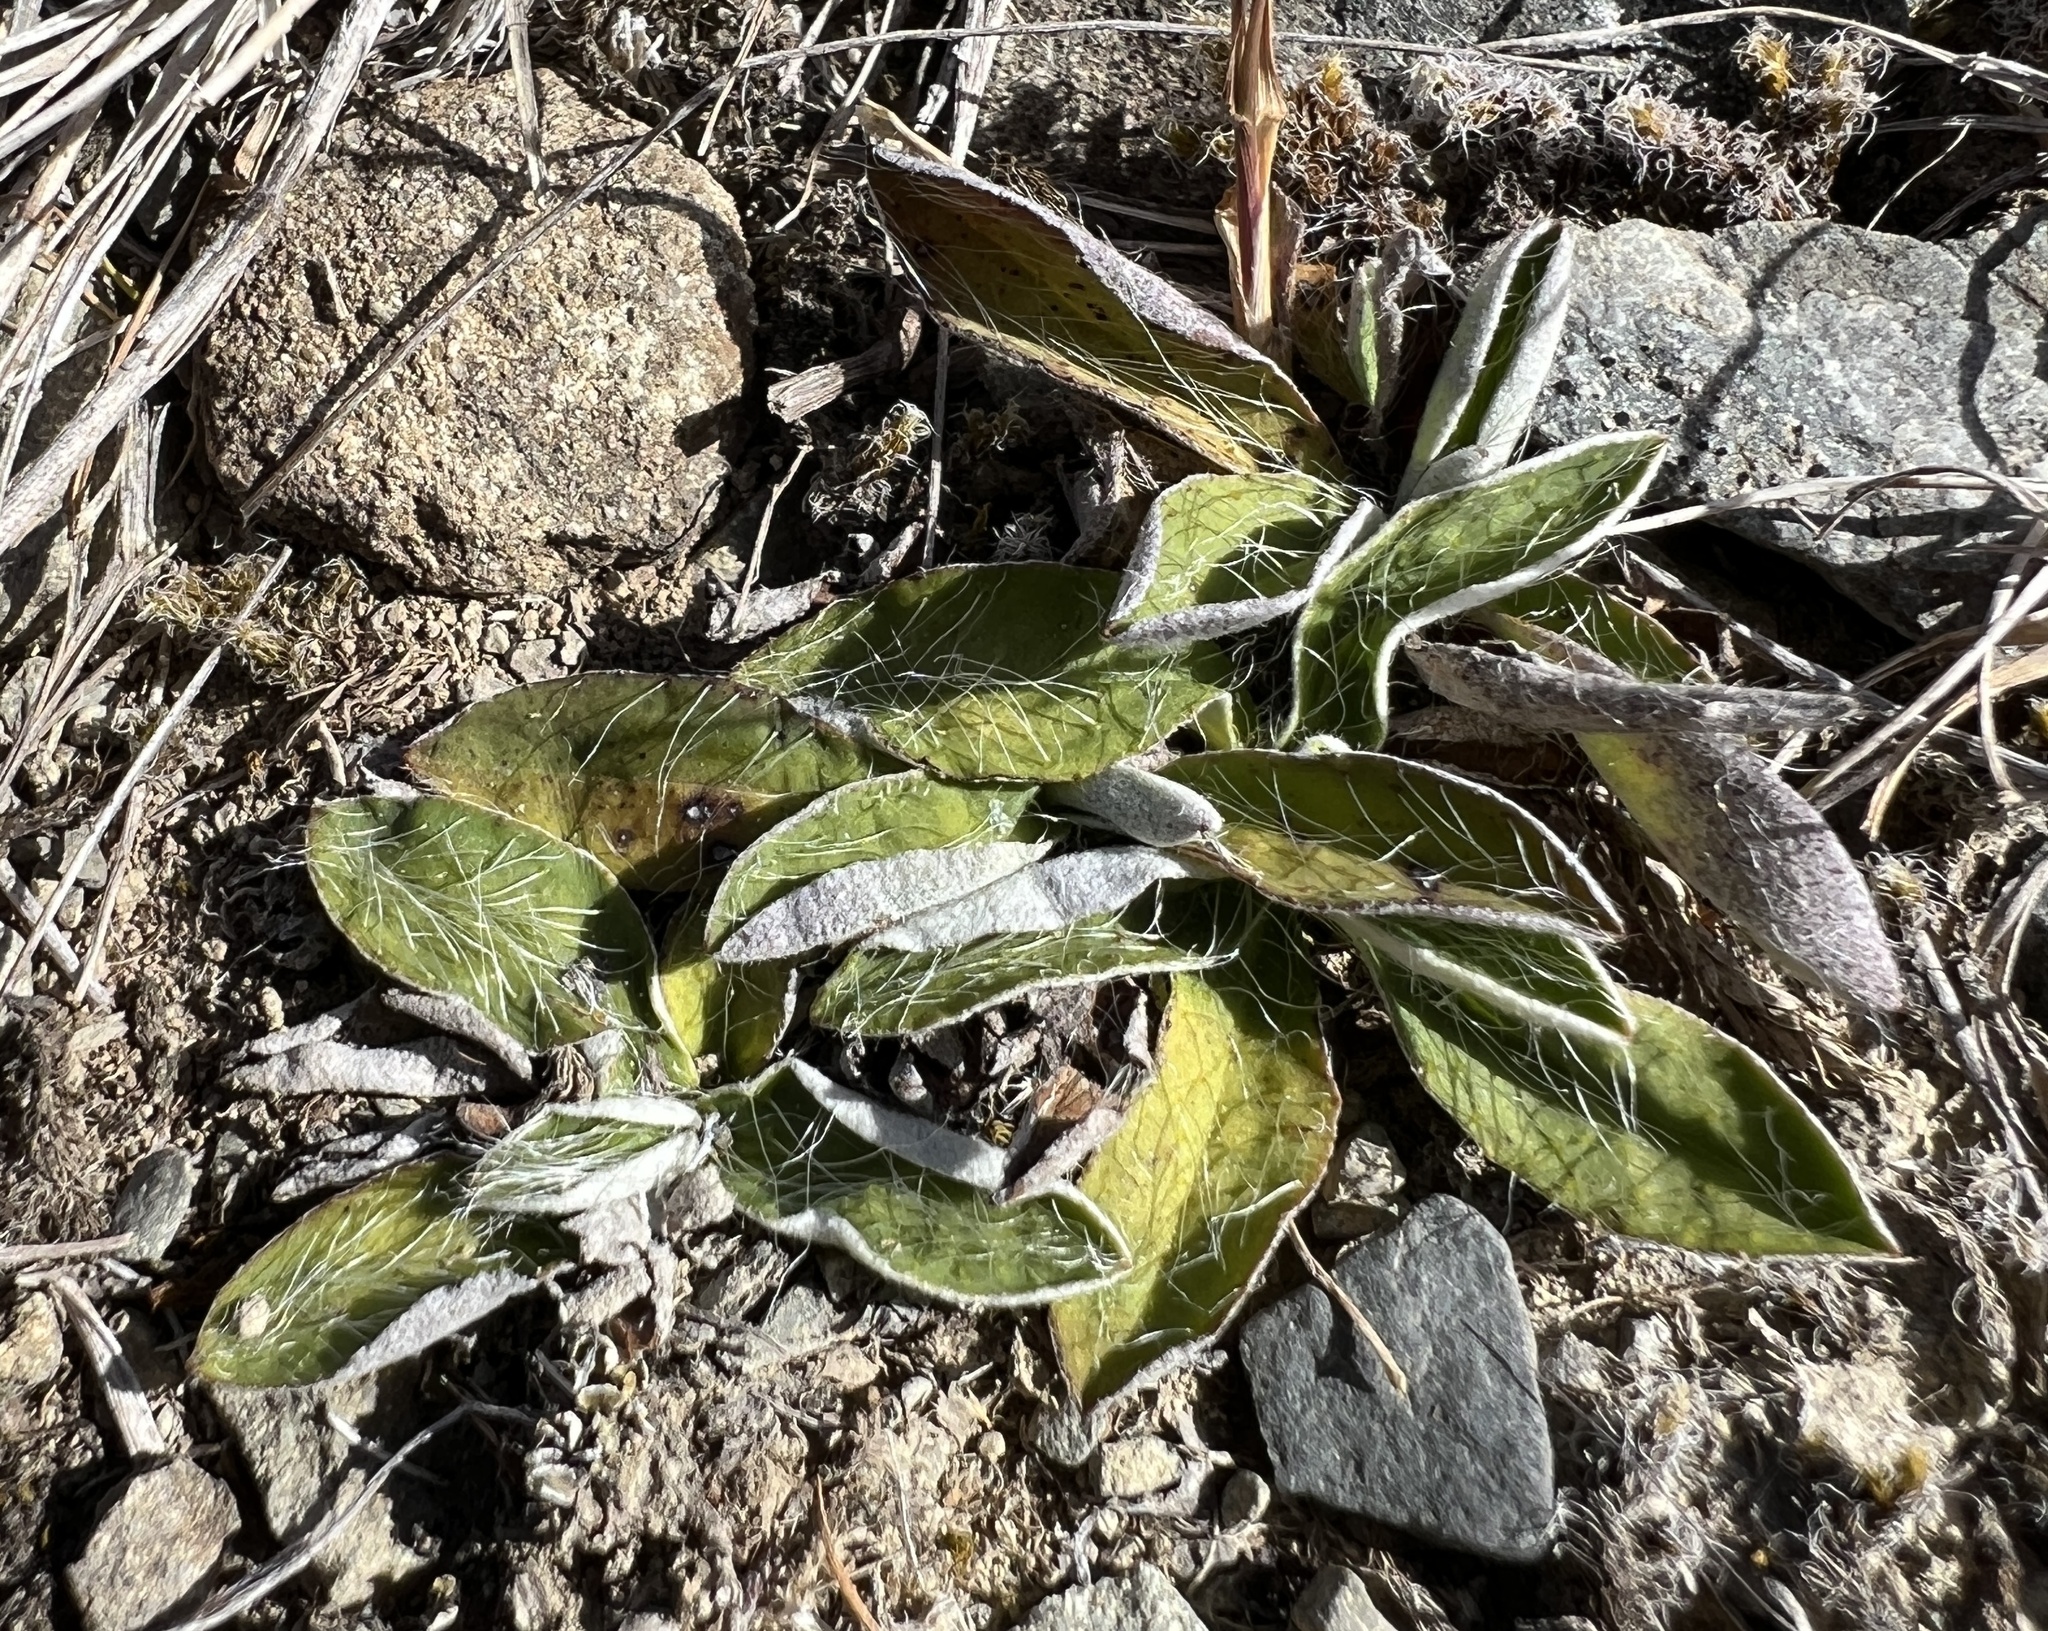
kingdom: Plantae
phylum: Tracheophyta
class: Magnoliopsida
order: Asterales
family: Asteraceae
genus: Pilosella
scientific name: Pilosella officinarum
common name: Mouse-ear hawkweed
